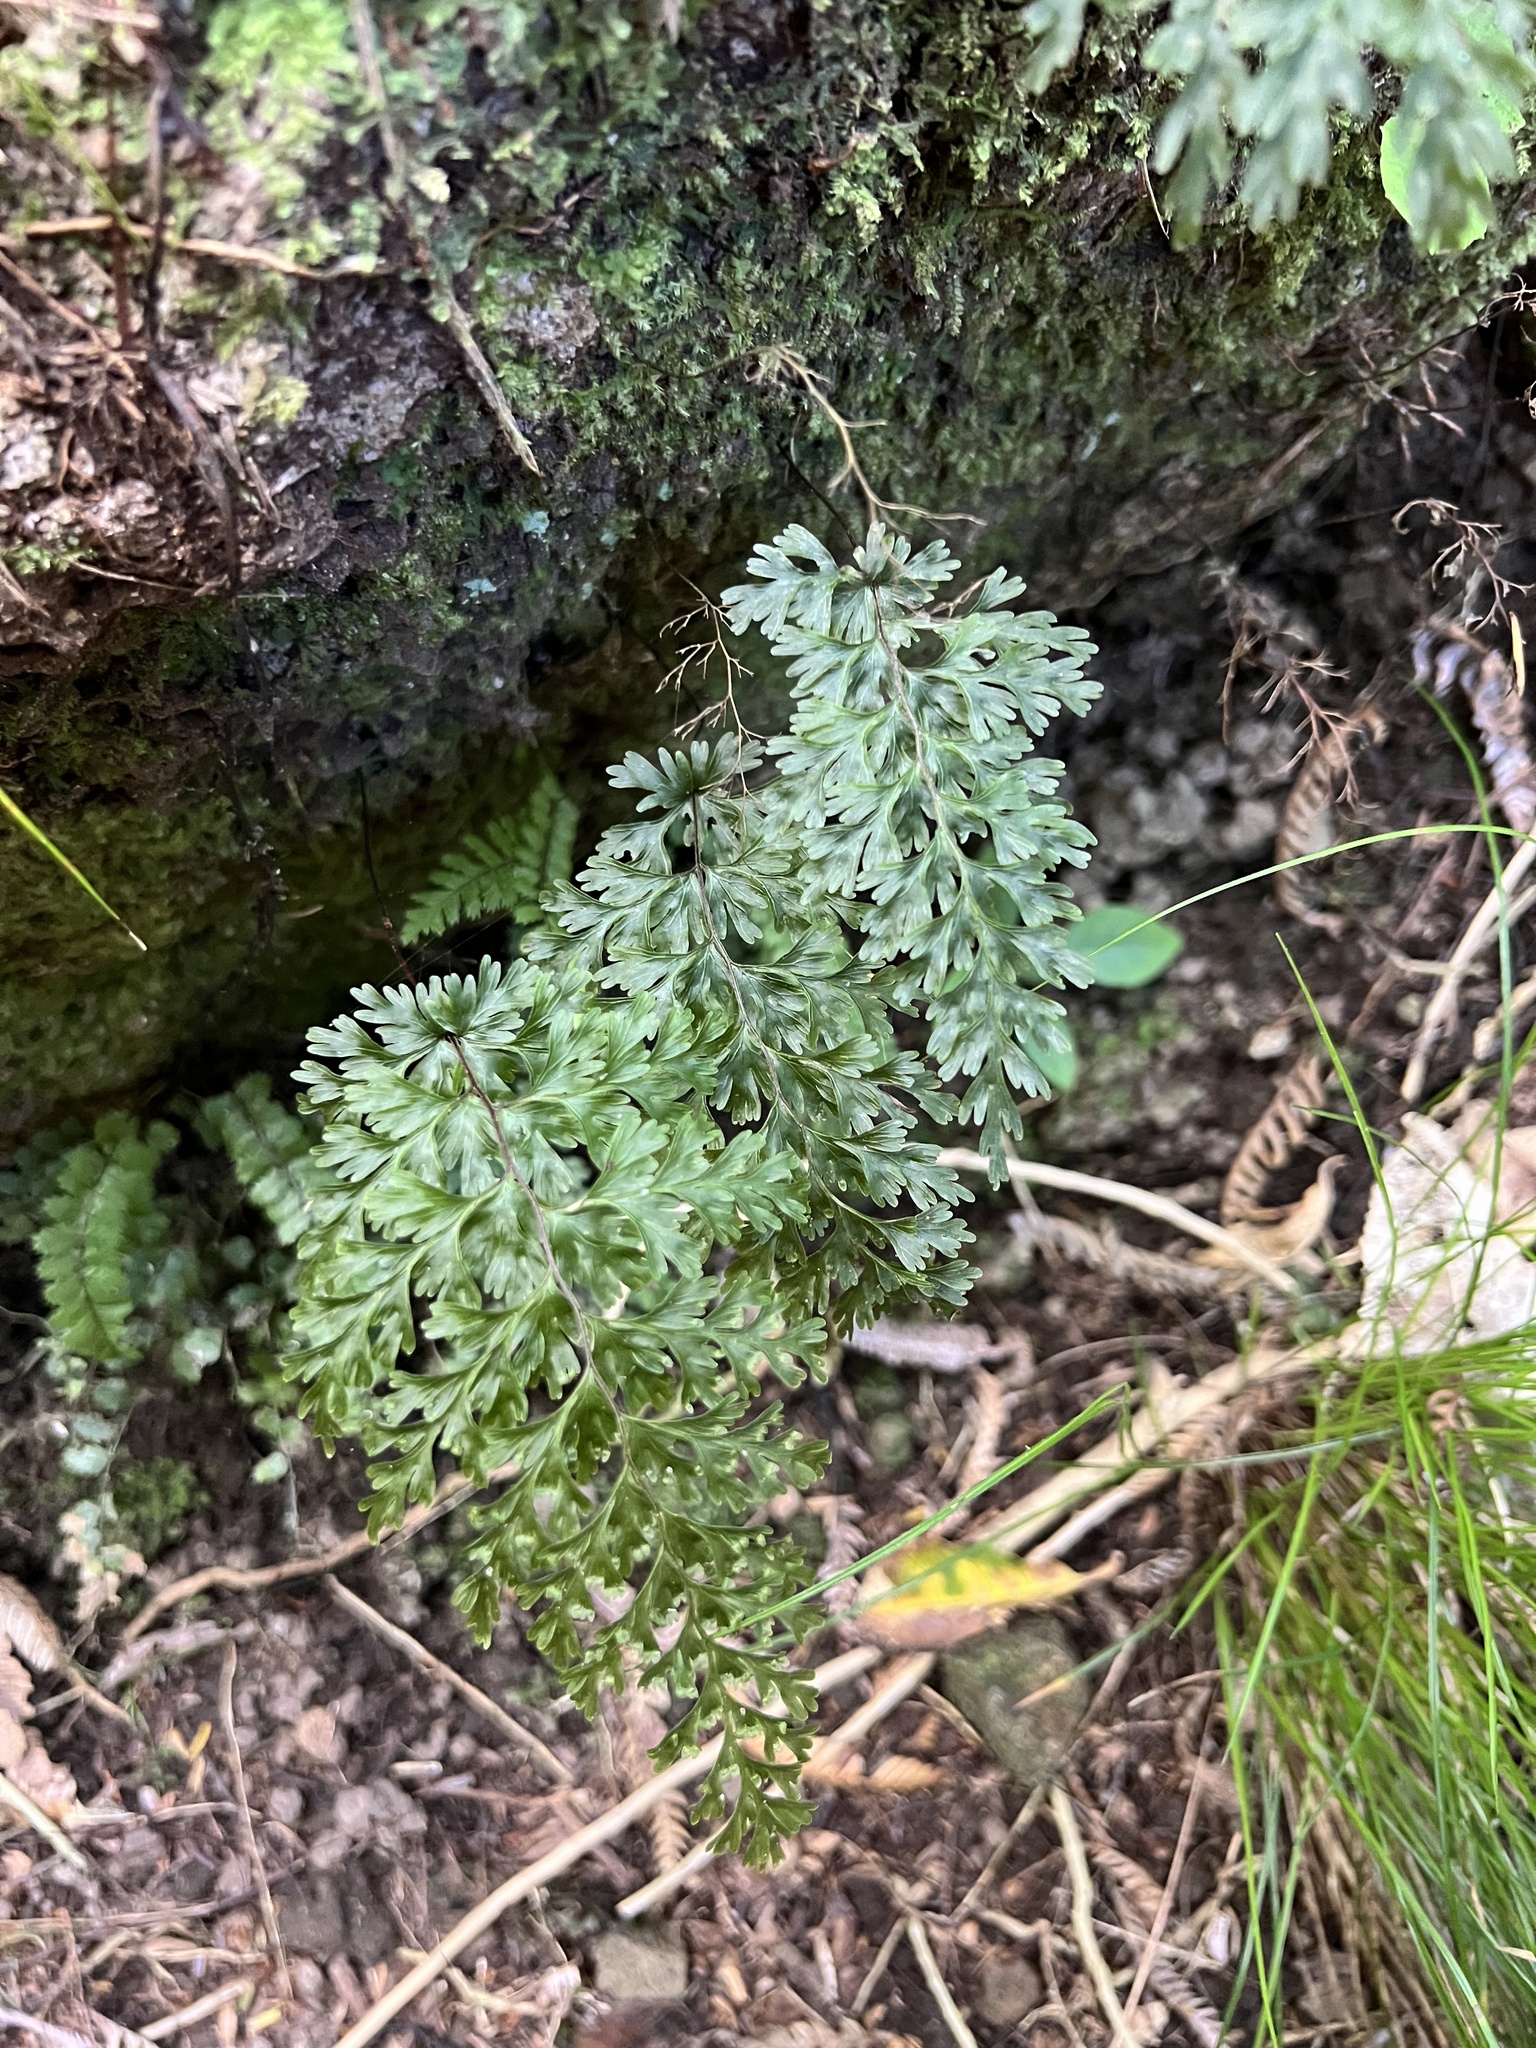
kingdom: Plantae
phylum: Tracheophyta
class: Polypodiopsida
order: Hymenophyllales
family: Hymenophyllaceae
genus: Hymenophyllum
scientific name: Hymenophyllum demissum
